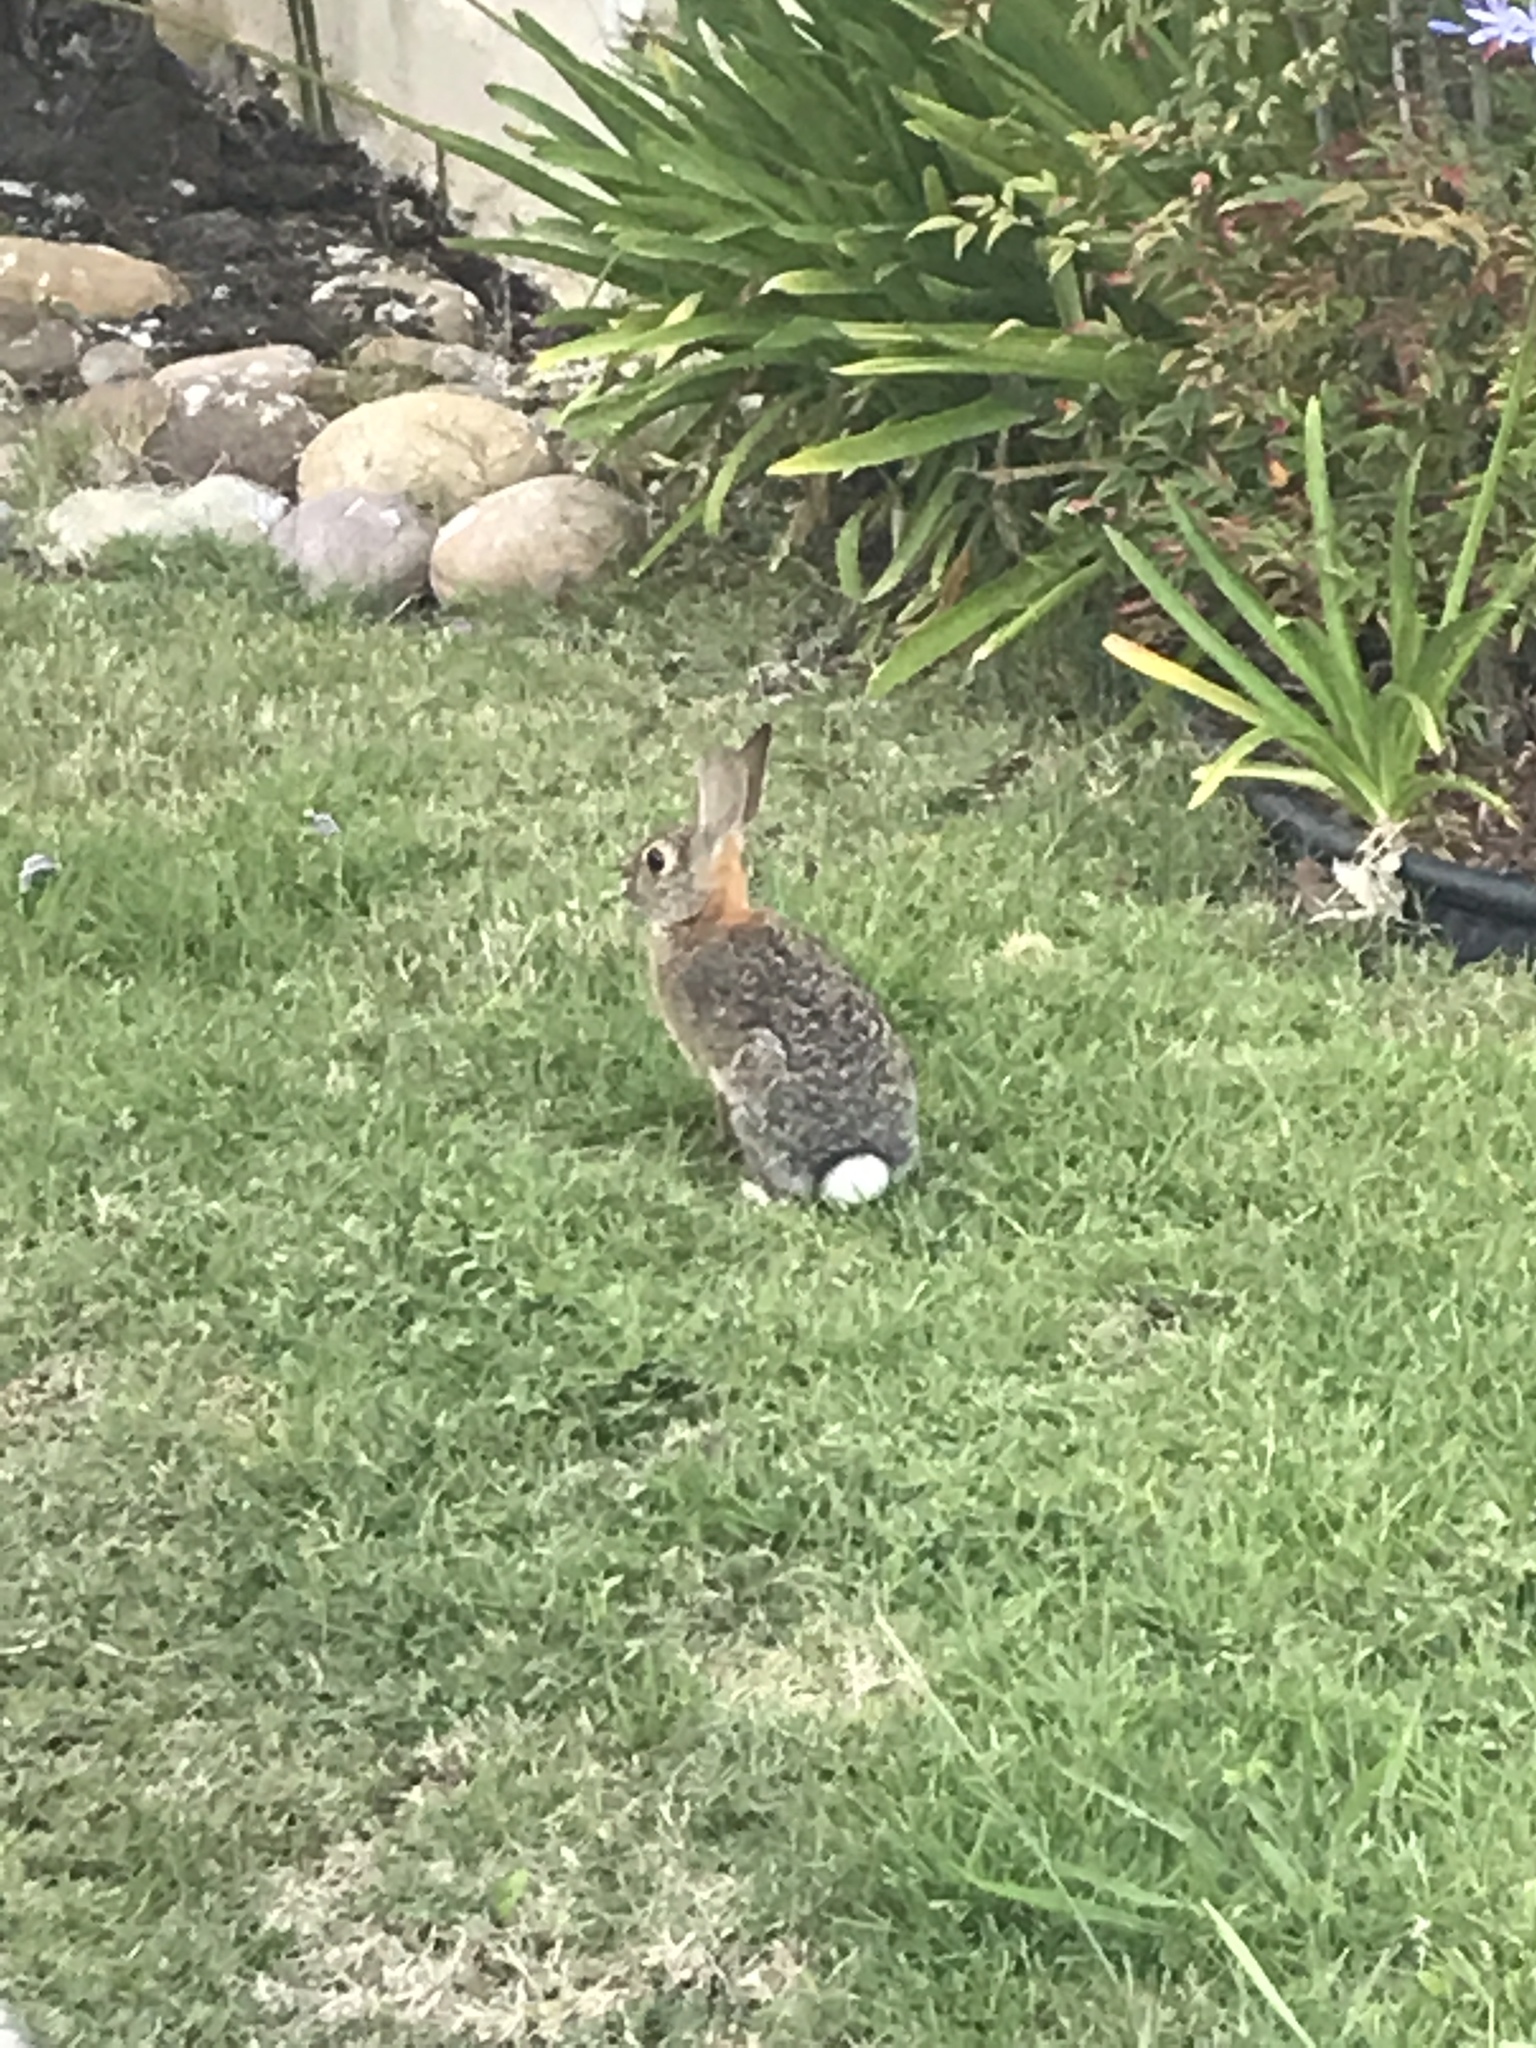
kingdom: Animalia
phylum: Chordata
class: Mammalia
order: Lagomorpha
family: Leporidae
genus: Sylvilagus
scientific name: Sylvilagus audubonii
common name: Desert cottontail
